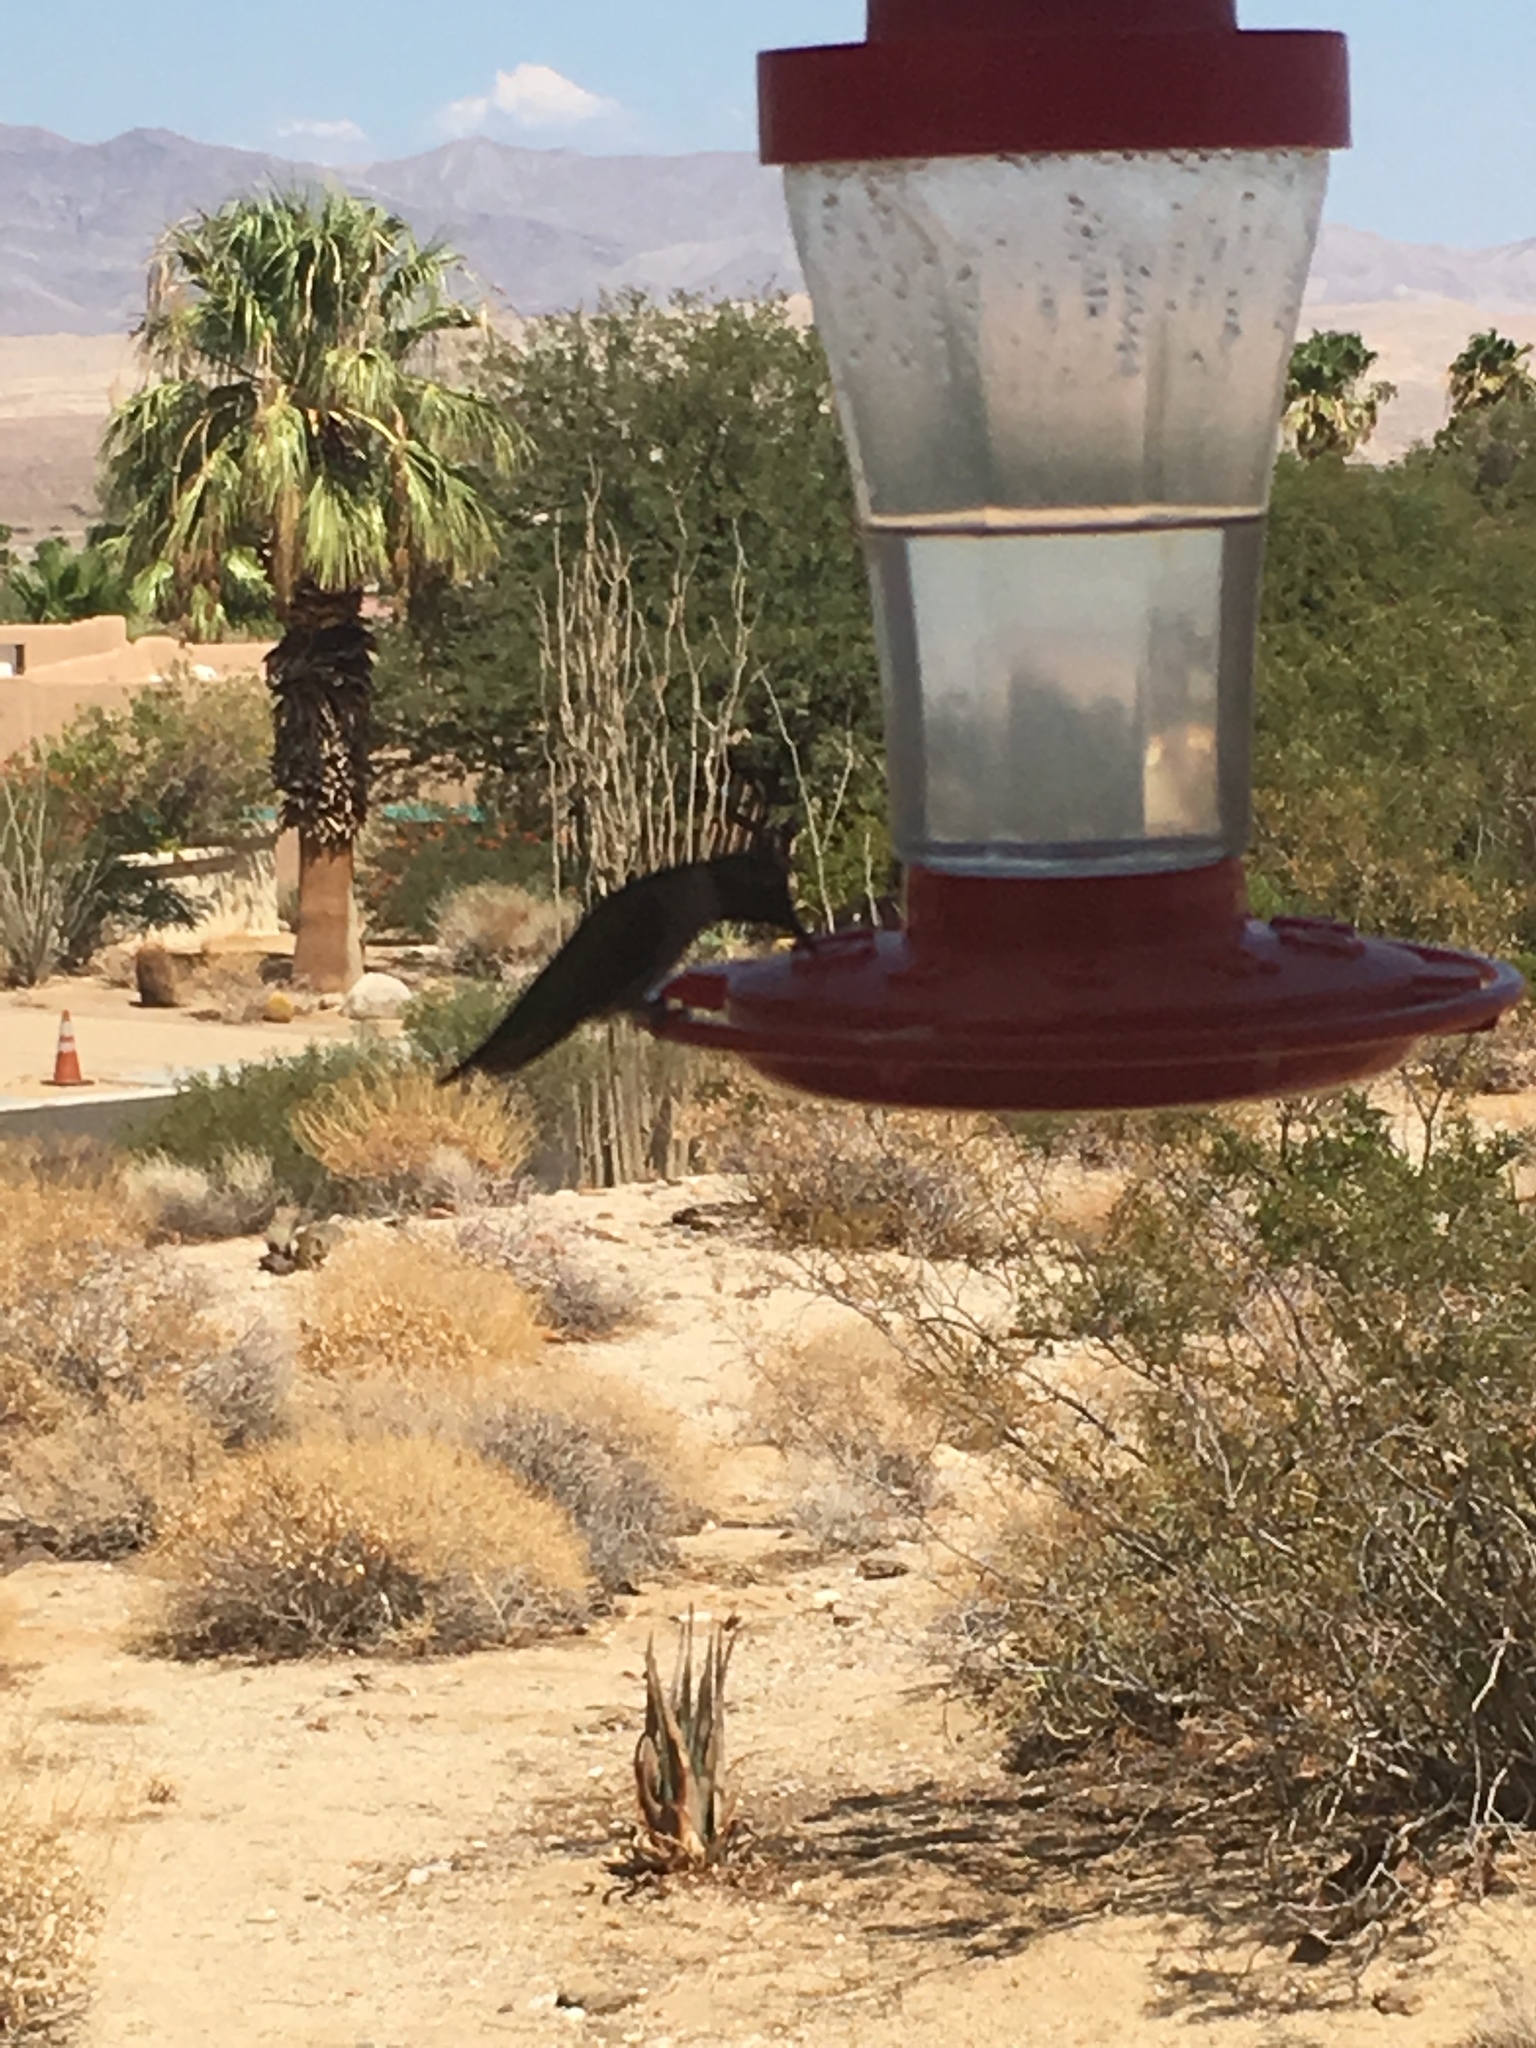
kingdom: Animalia
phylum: Chordata
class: Aves
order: Apodiformes
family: Trochilidae
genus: Calypte
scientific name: Calypte anna
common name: Anna's hummingbird
